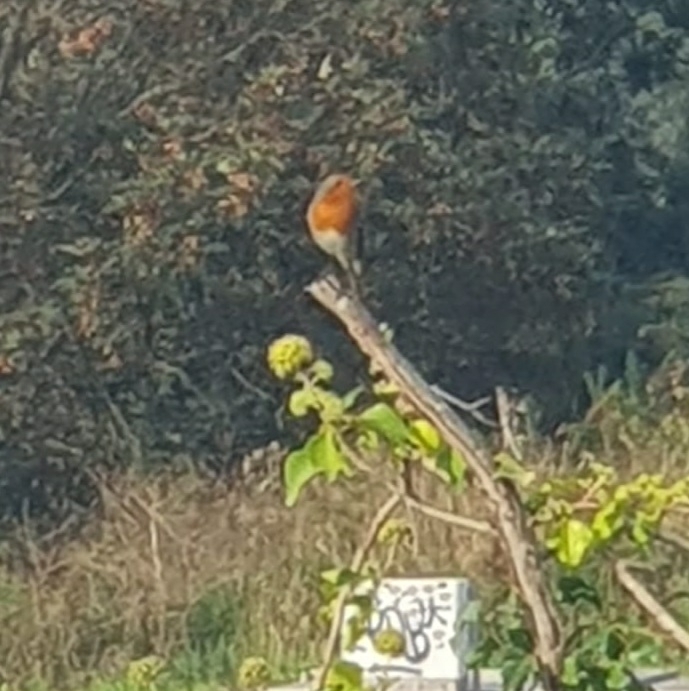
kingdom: Animalia
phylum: Chordata
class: Aves
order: Passeriformes
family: Muscicapidae
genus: Erithacus
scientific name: Erithacus rubecula
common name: European robin
